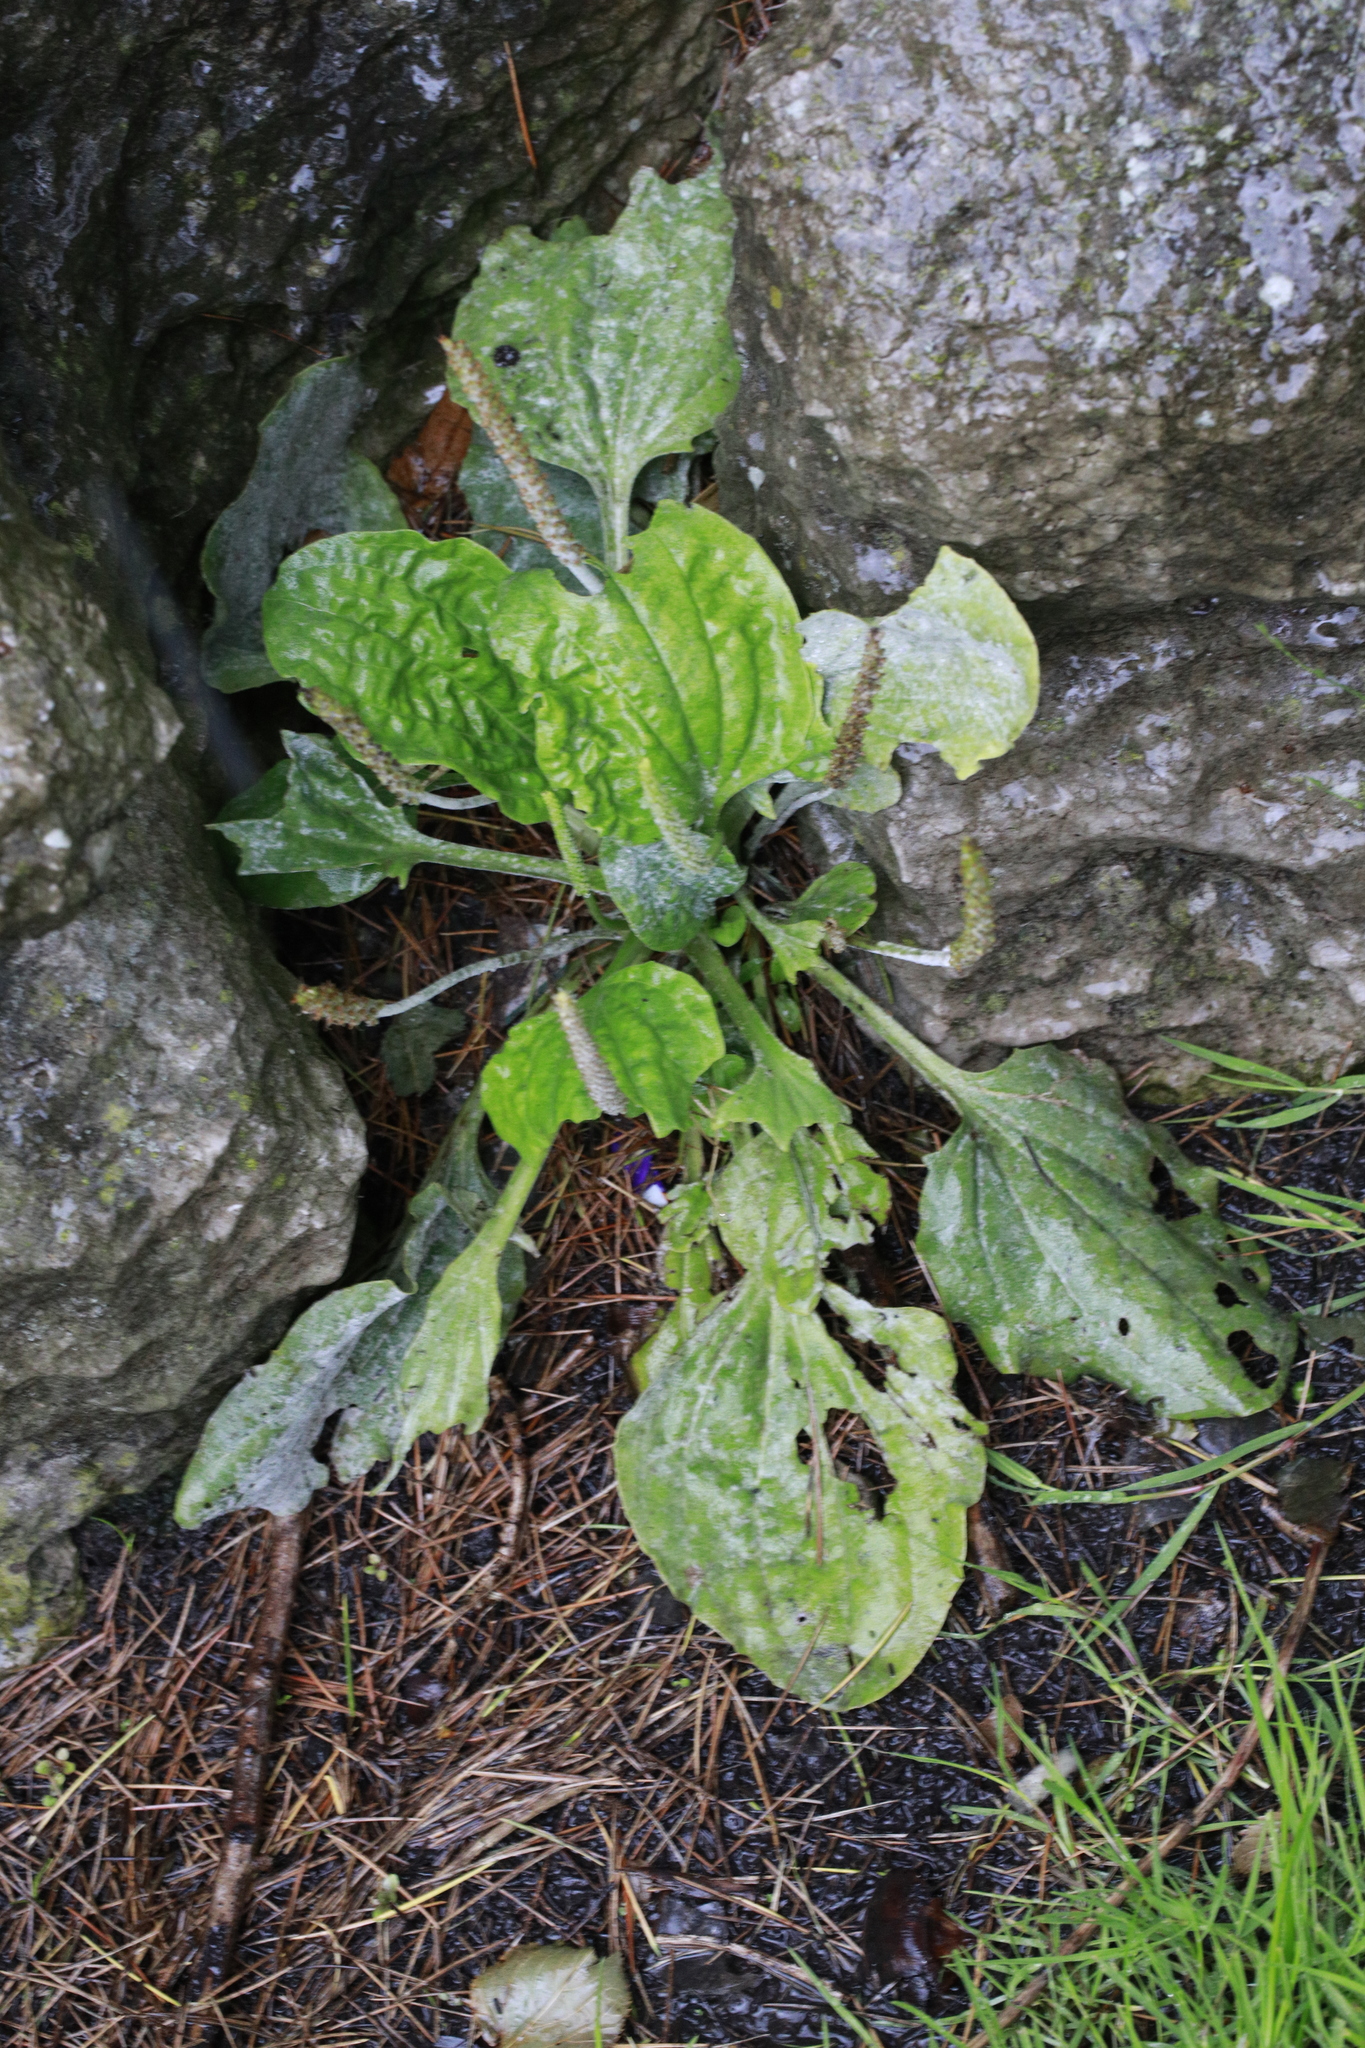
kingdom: Fungi
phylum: Ascomycota
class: Leotiomycetes
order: Helotiales
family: Erysiphaceae
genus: Golovinomyces
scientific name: Golovinomyces sordidus
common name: Plantain mildew
